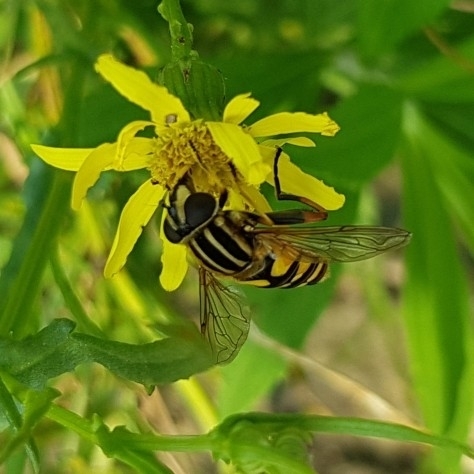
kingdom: Animalia
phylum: Arthropoda
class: Insecta
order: Diptera
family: Syrphidae
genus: Helophilus
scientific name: Helophilus pendulus
